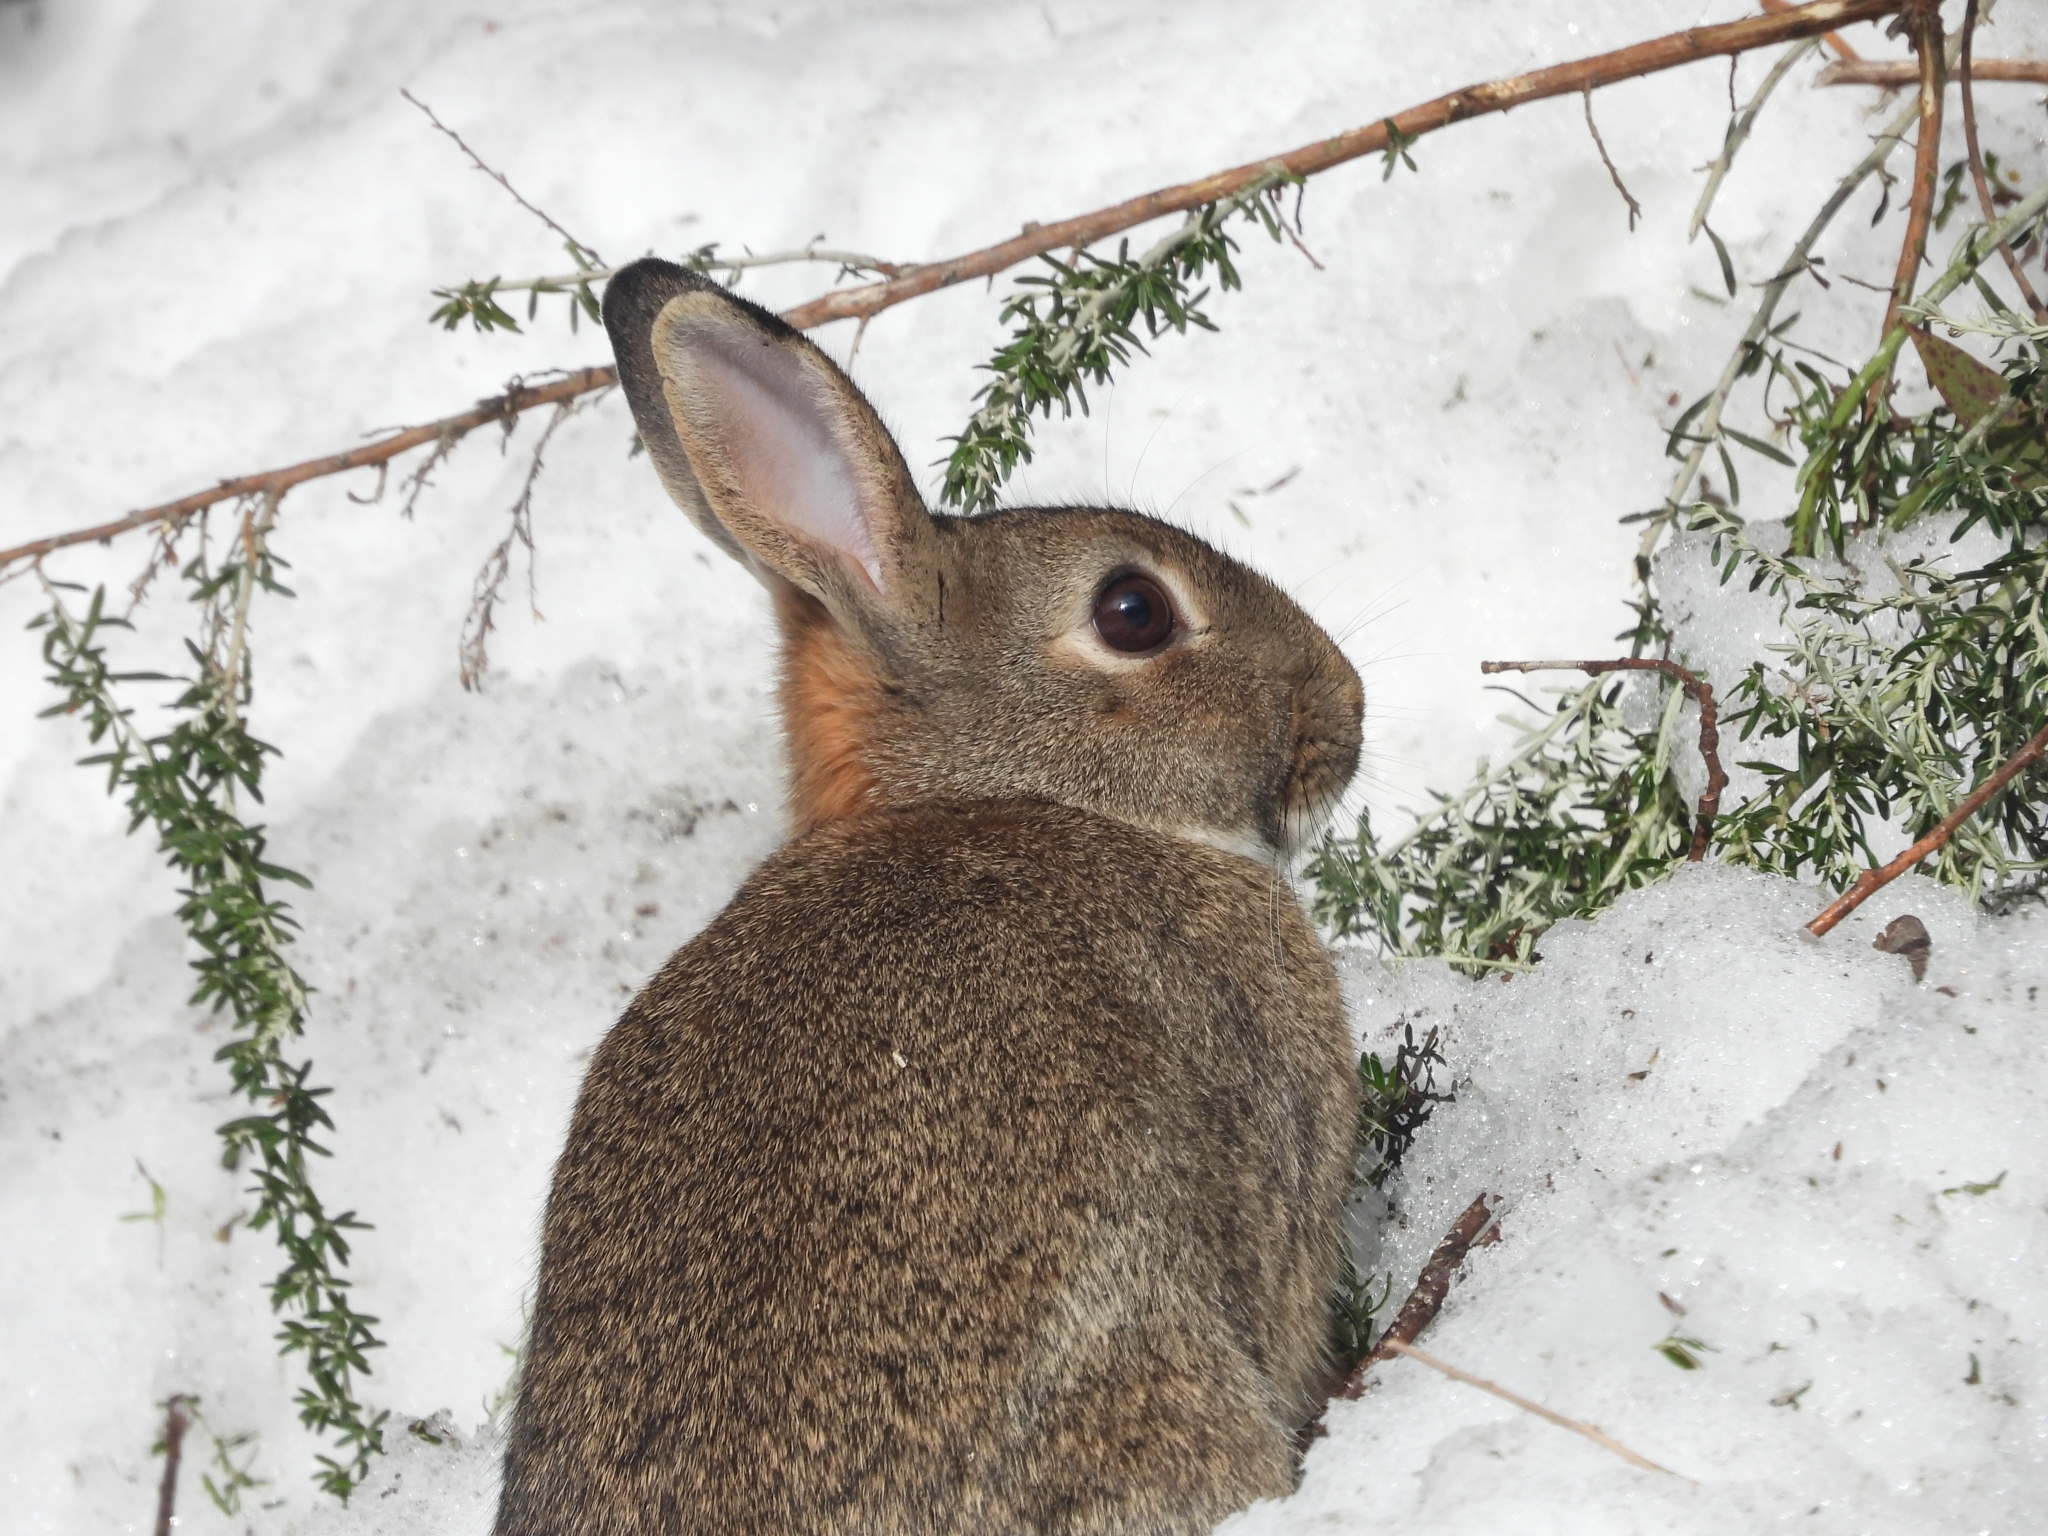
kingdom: Animalia
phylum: Chordata
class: Mammalia
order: Lagomorpha
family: Leporidae
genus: Oryctolagus
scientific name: Oryctolagus cuniculus
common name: European rabbit
